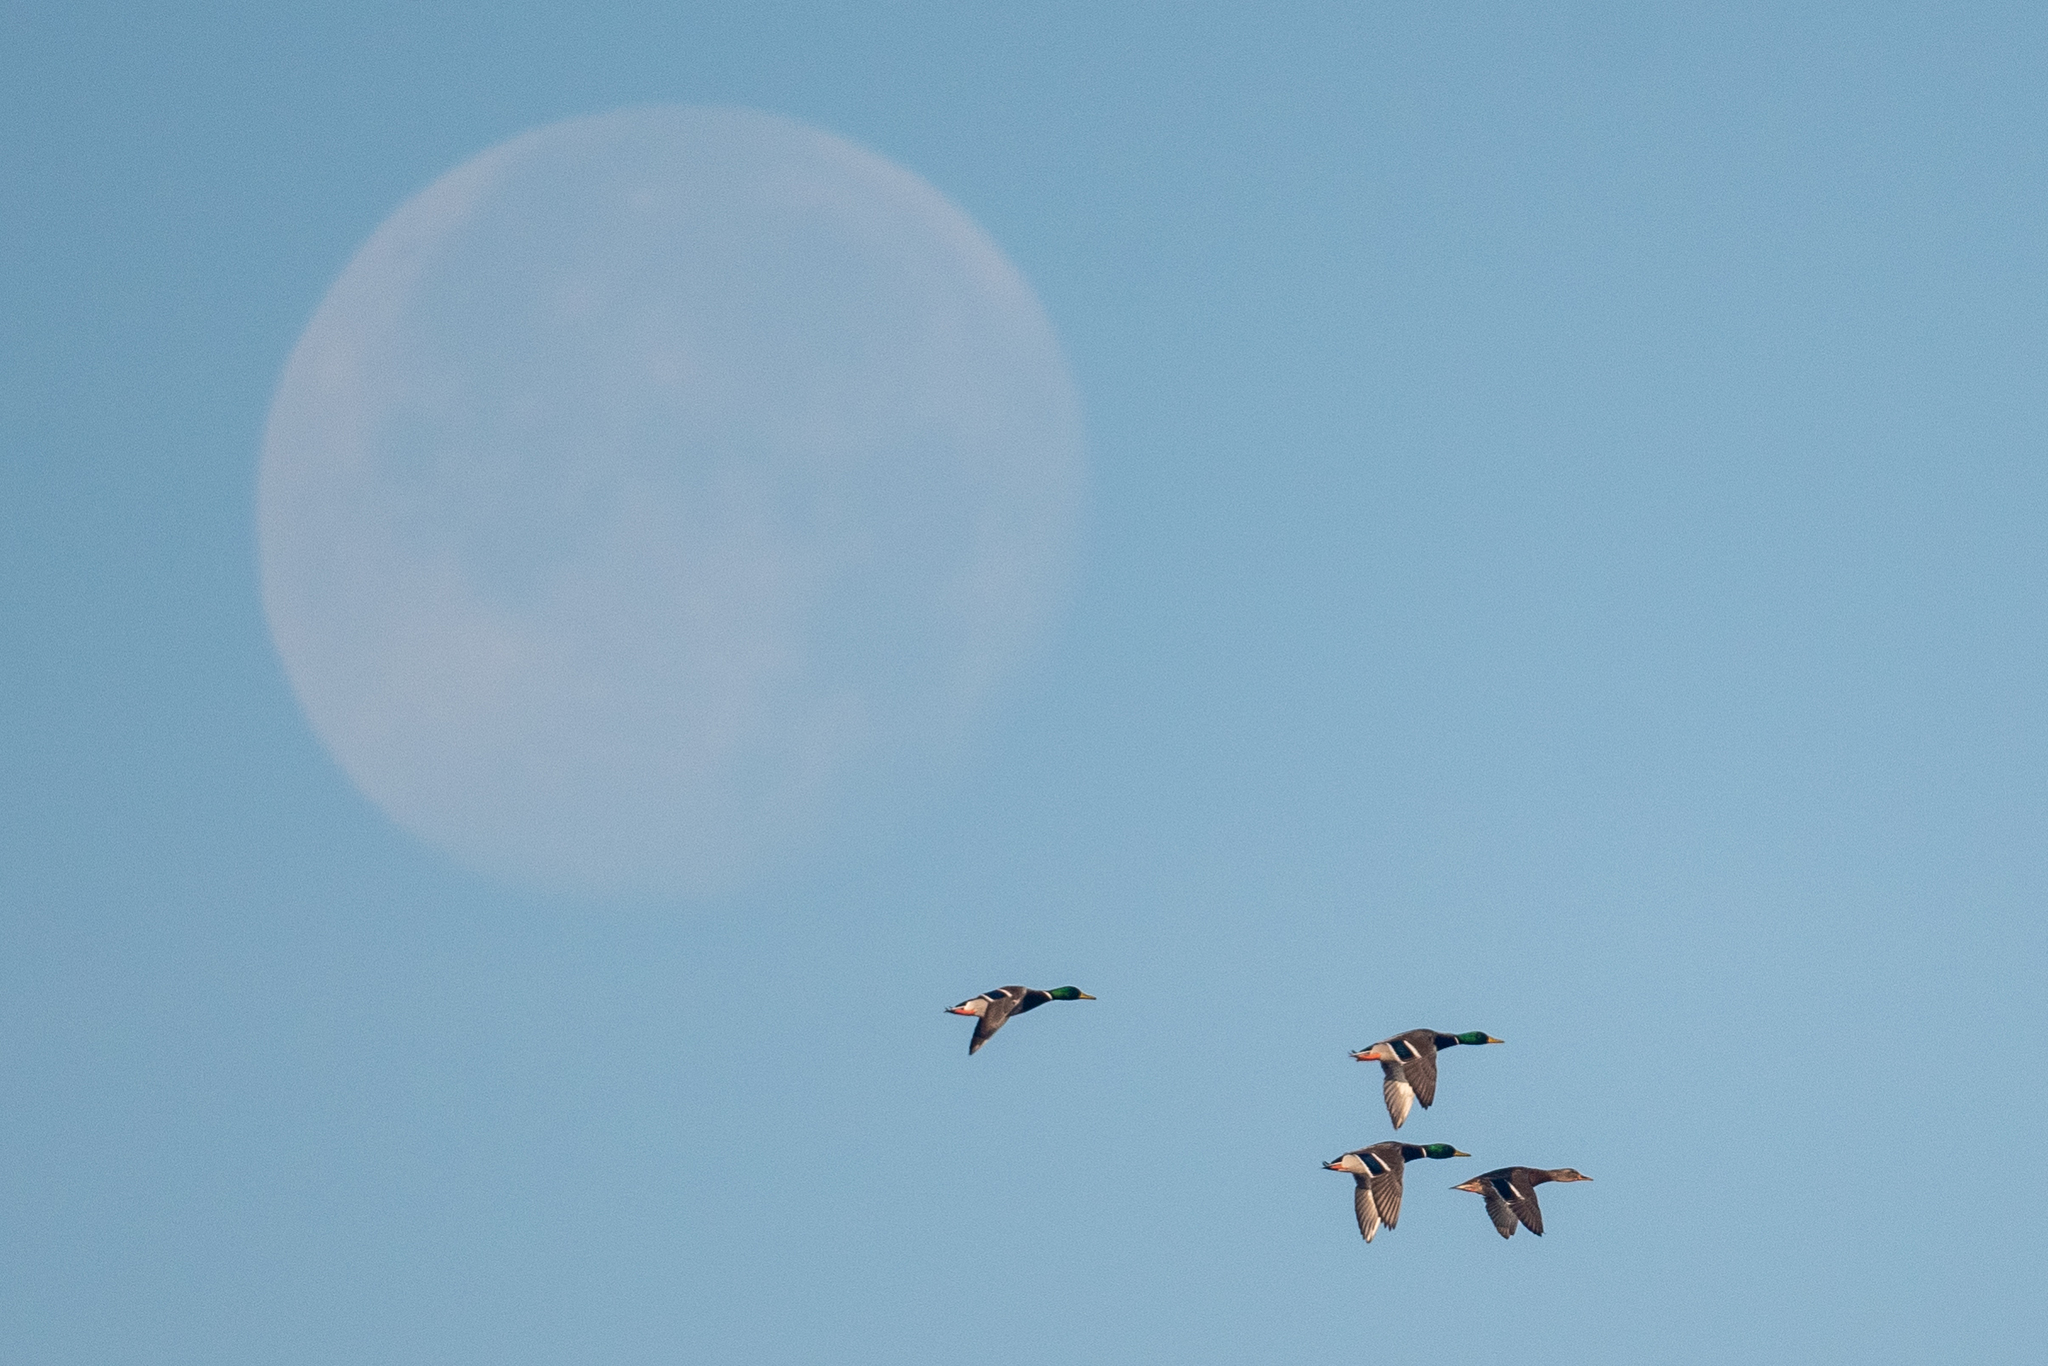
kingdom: Animalia
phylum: Chordata
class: Aves
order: Anseriformes
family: Anatidae
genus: Anas
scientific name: Anas platyrhynchos
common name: Mallard
